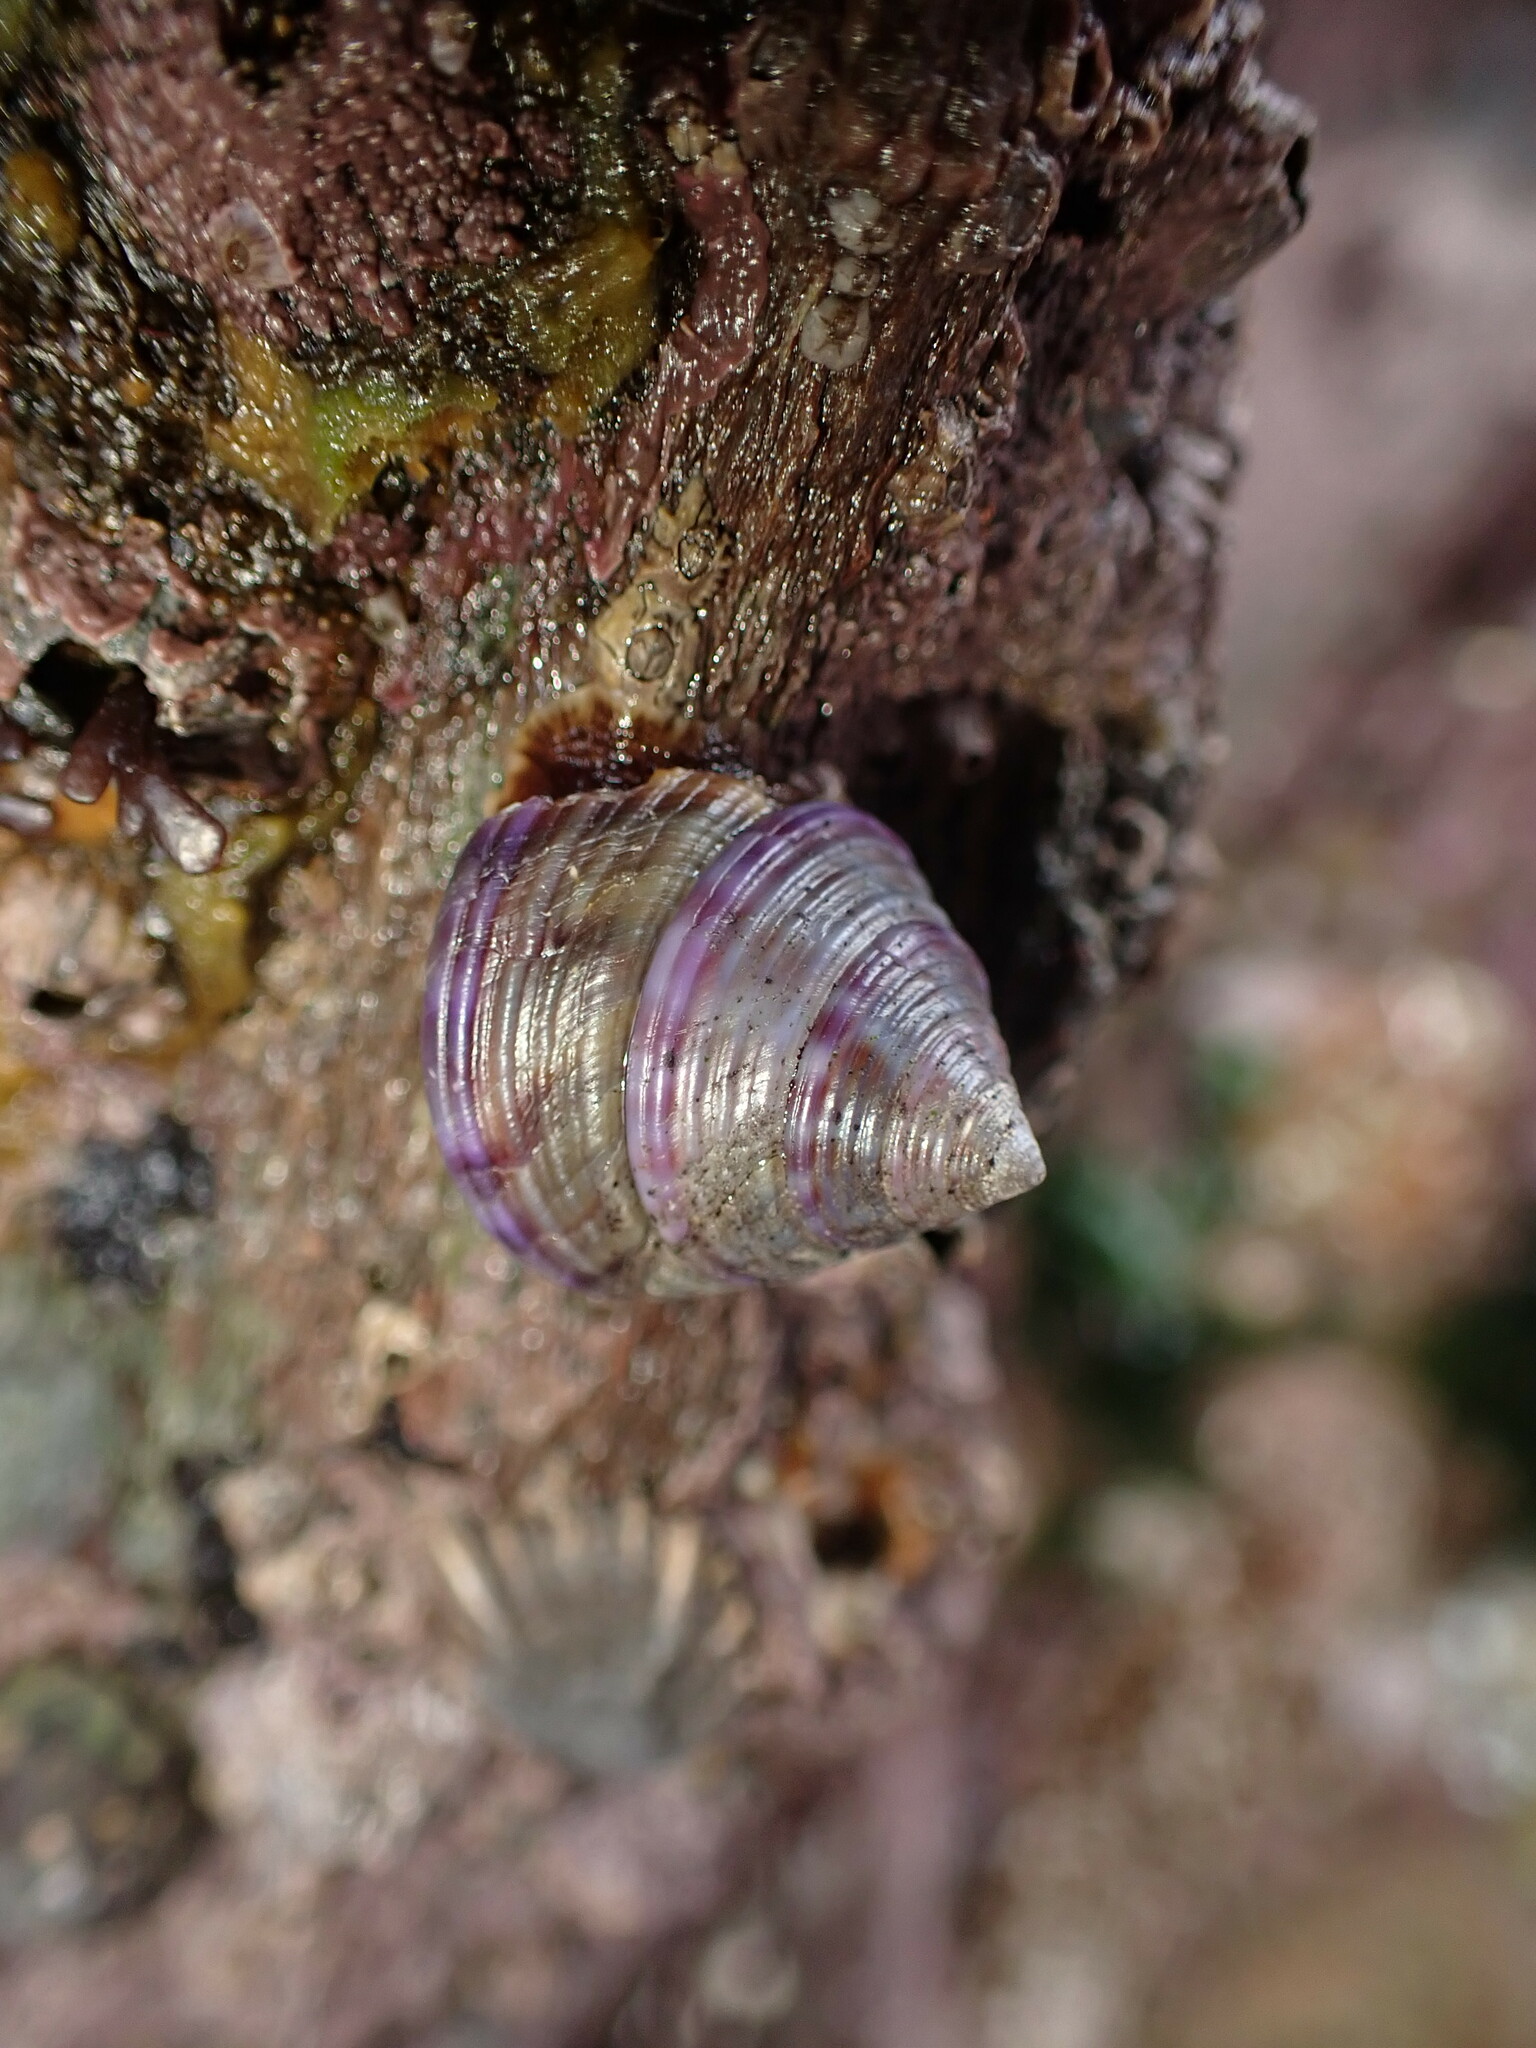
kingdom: Animalia
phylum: Mollusca
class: Gastropoda
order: Trochida
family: Calliostomatidae
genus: Calliostoma
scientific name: Calliostoma zizyphinum
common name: Painted top shell
